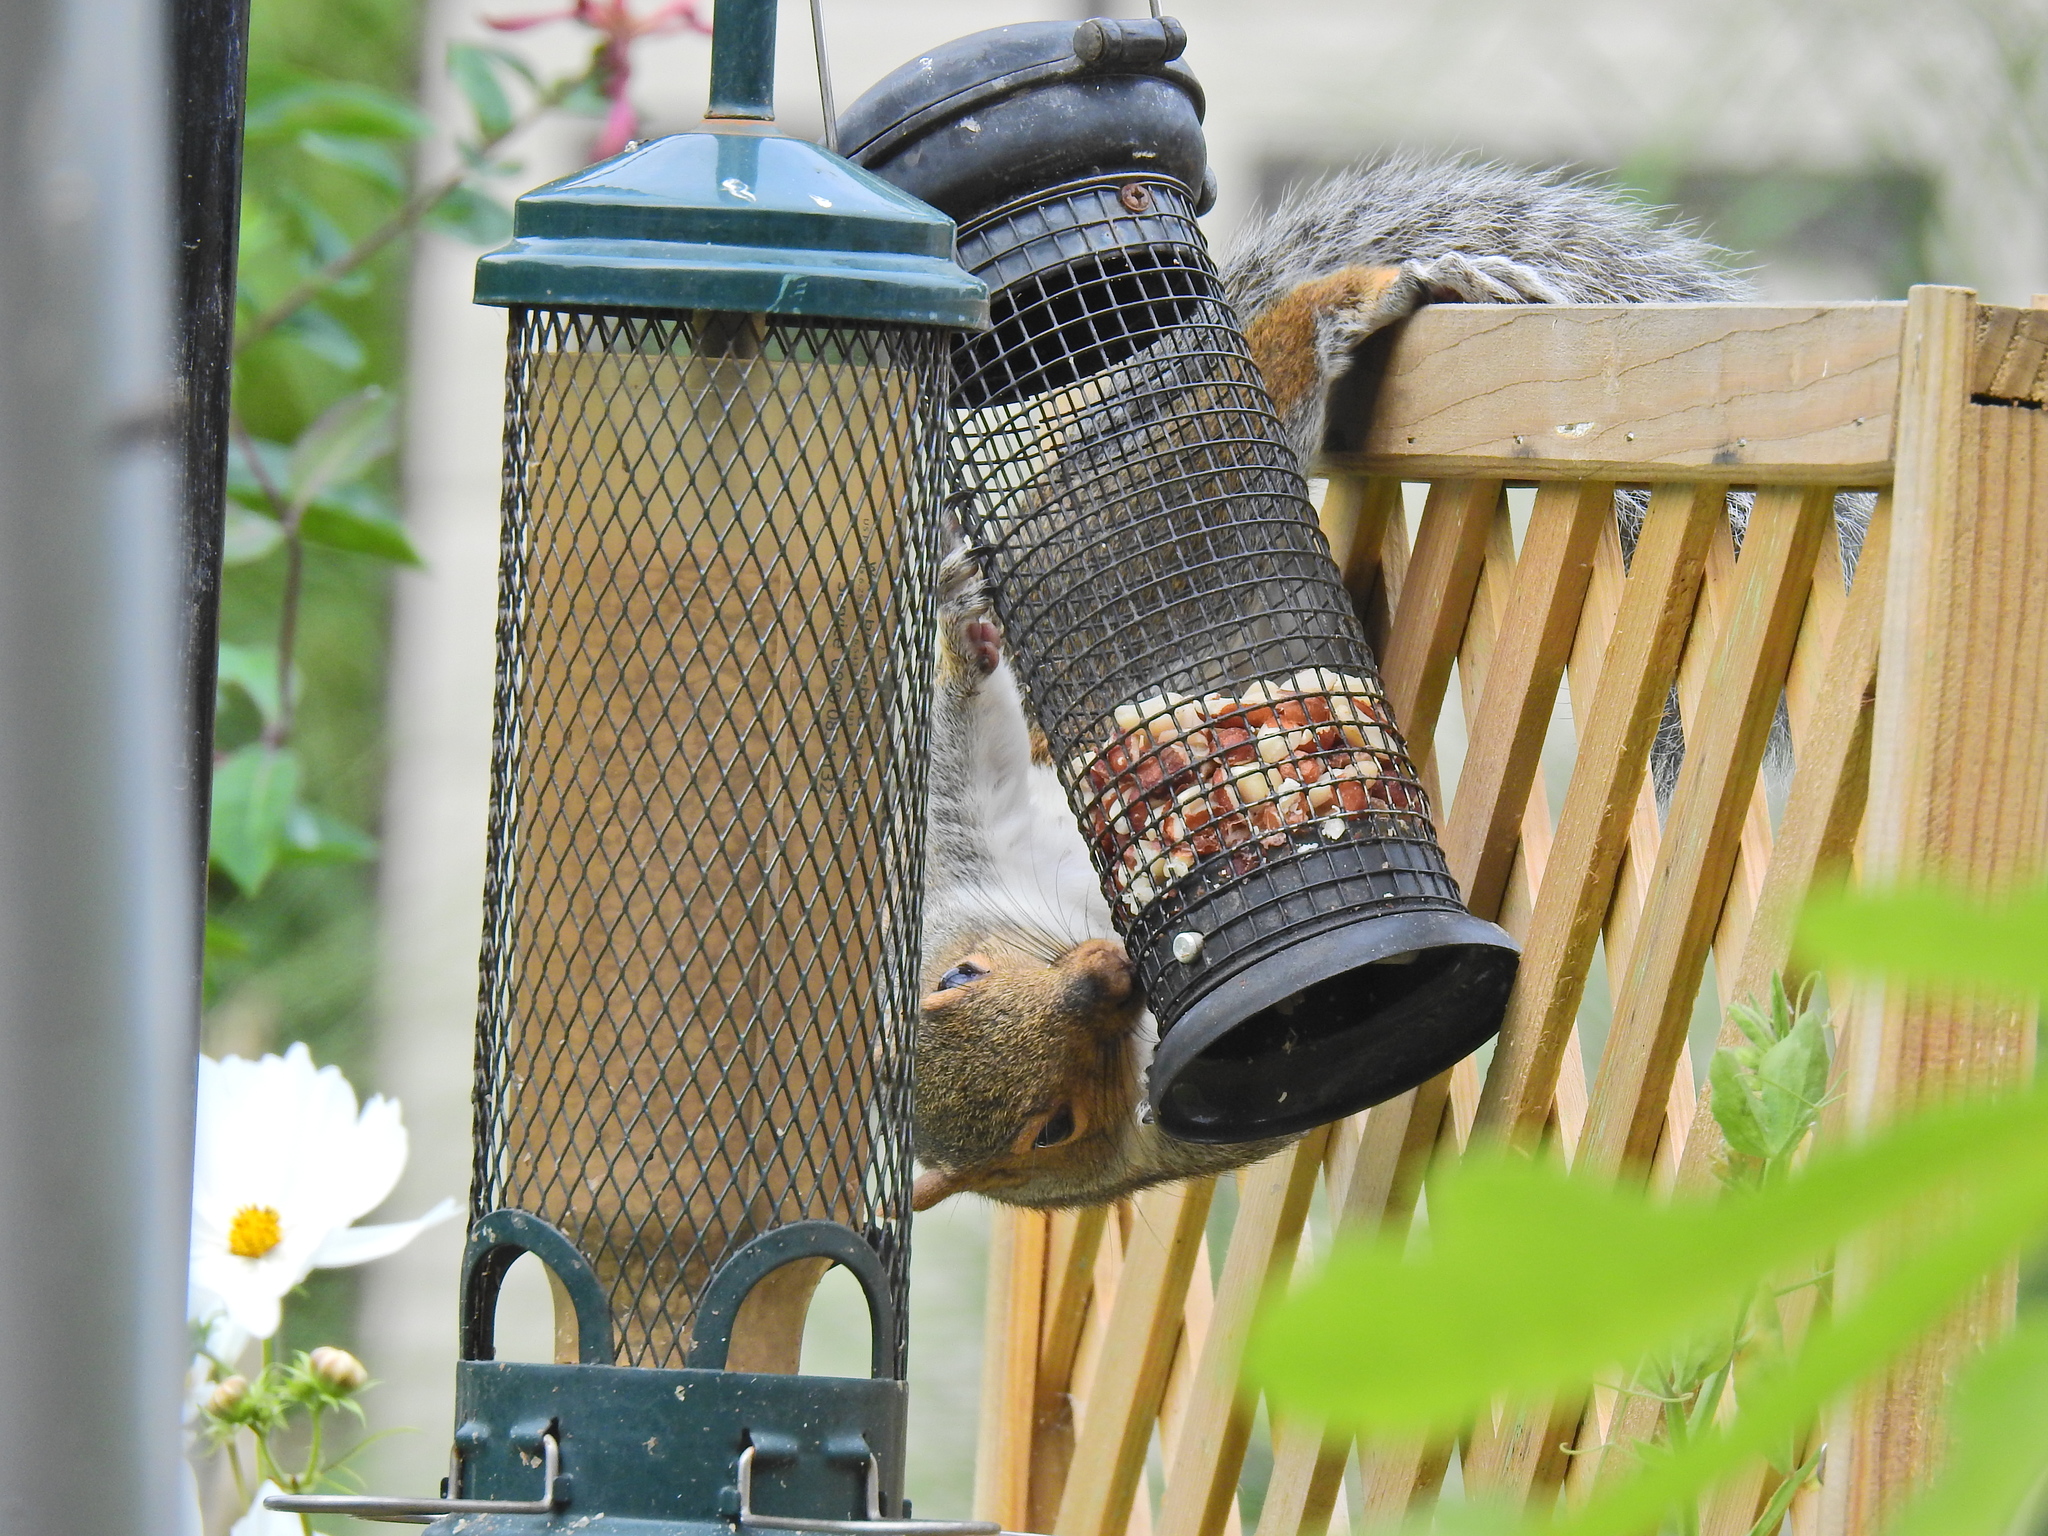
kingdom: Animalia
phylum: Chordata
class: Mammalia
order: Rodentia
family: Sciuridae
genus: Sciurus
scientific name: Sciurus carolinensis
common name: Eastern gray squirrel
